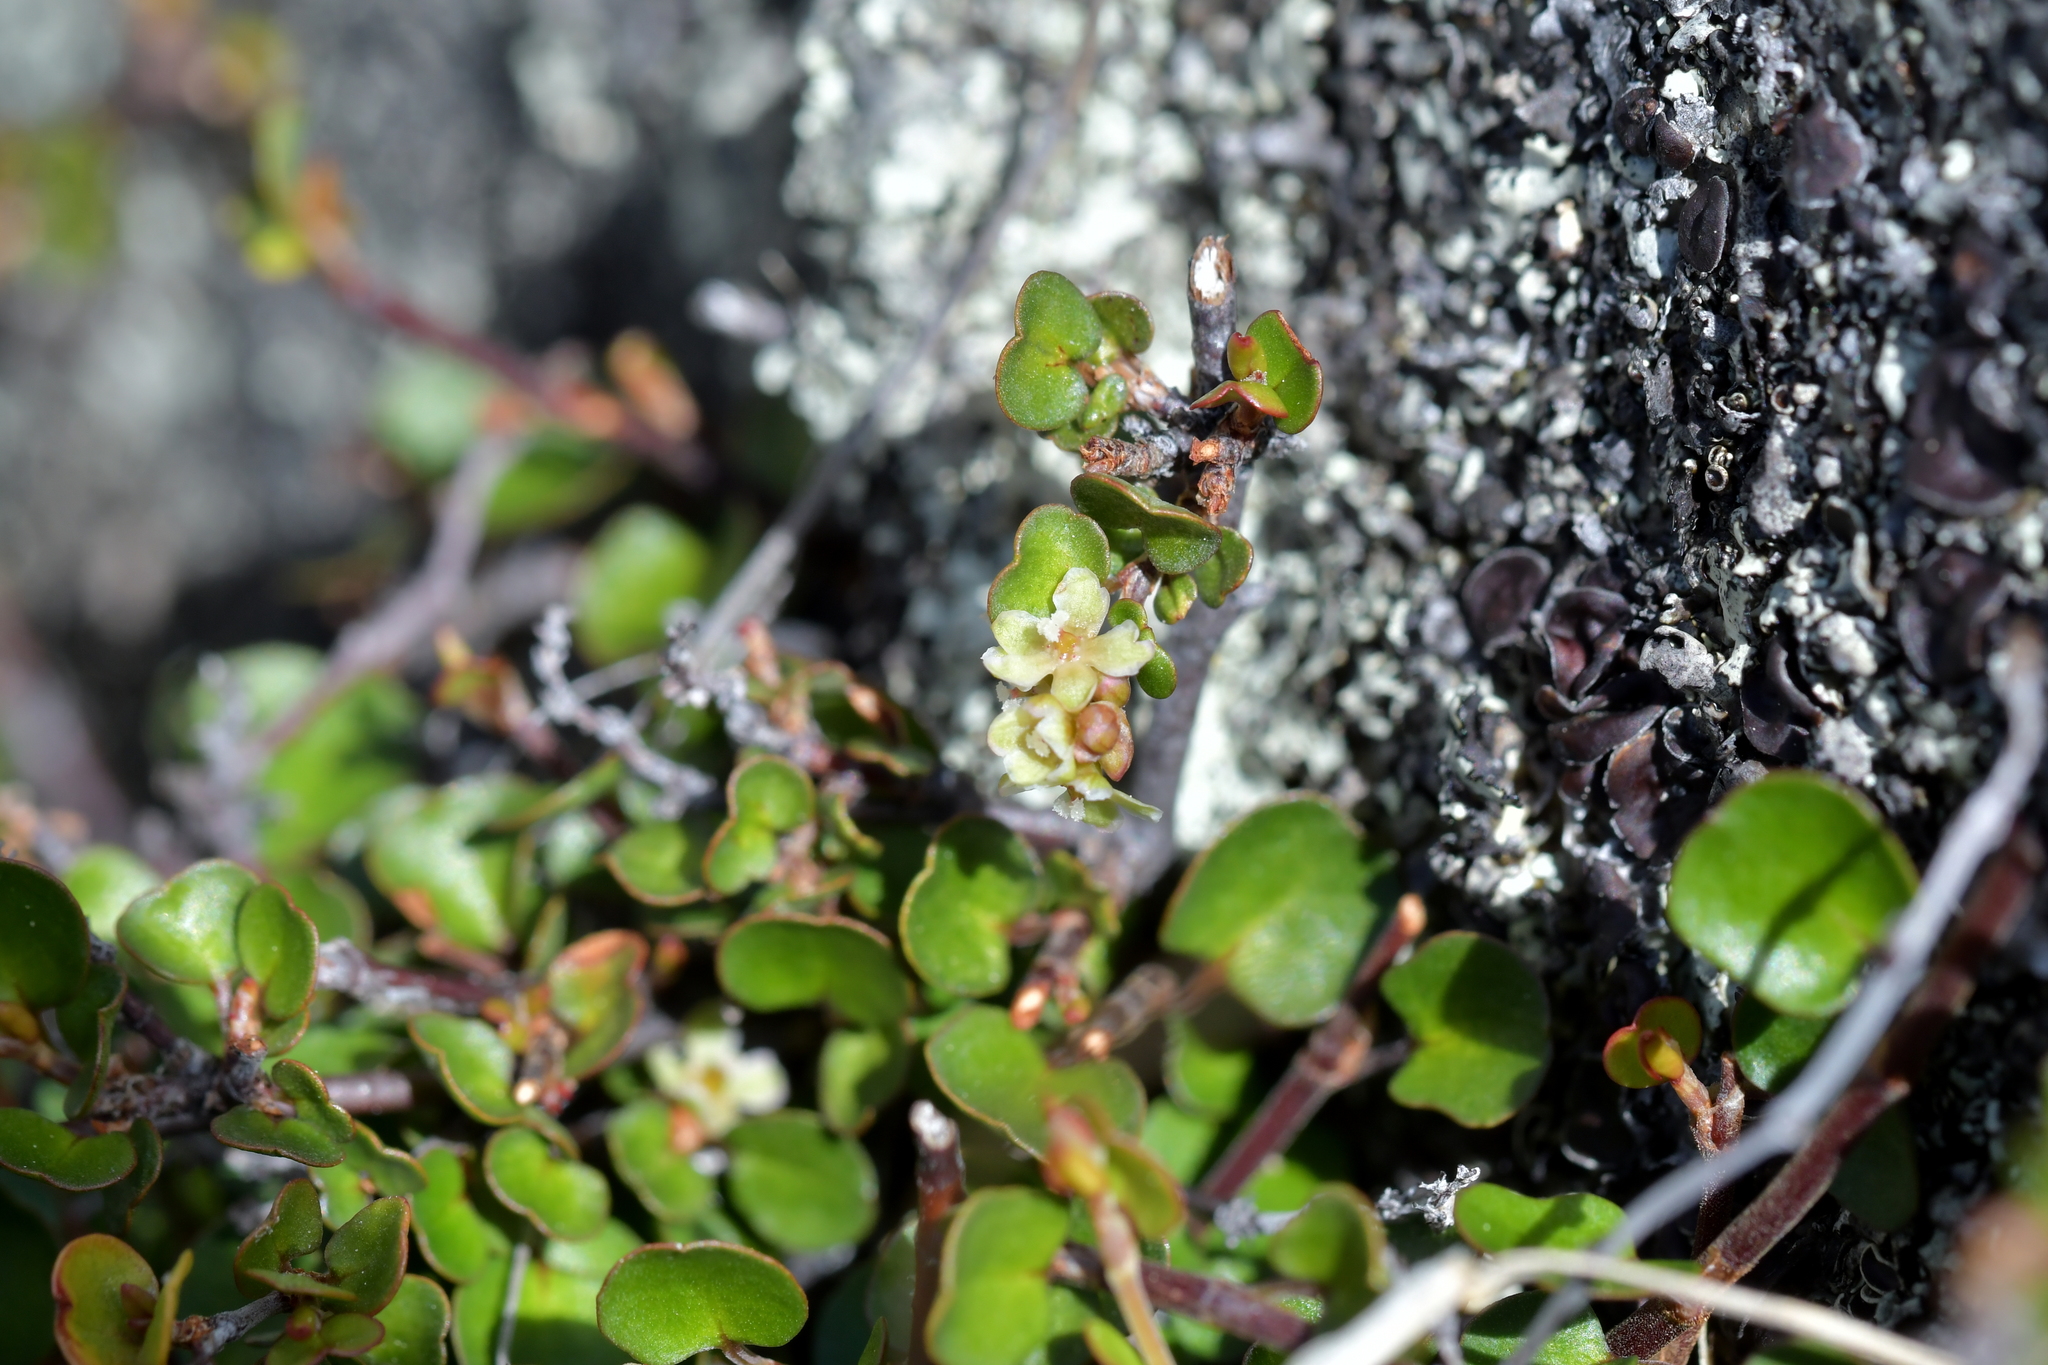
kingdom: Plantae
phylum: Tracheophyta
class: Magnoliopsida
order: Caryophyllales
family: Polygonaceae
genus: Muehlenbeckia
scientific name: Muehlenbeckia axillaris
